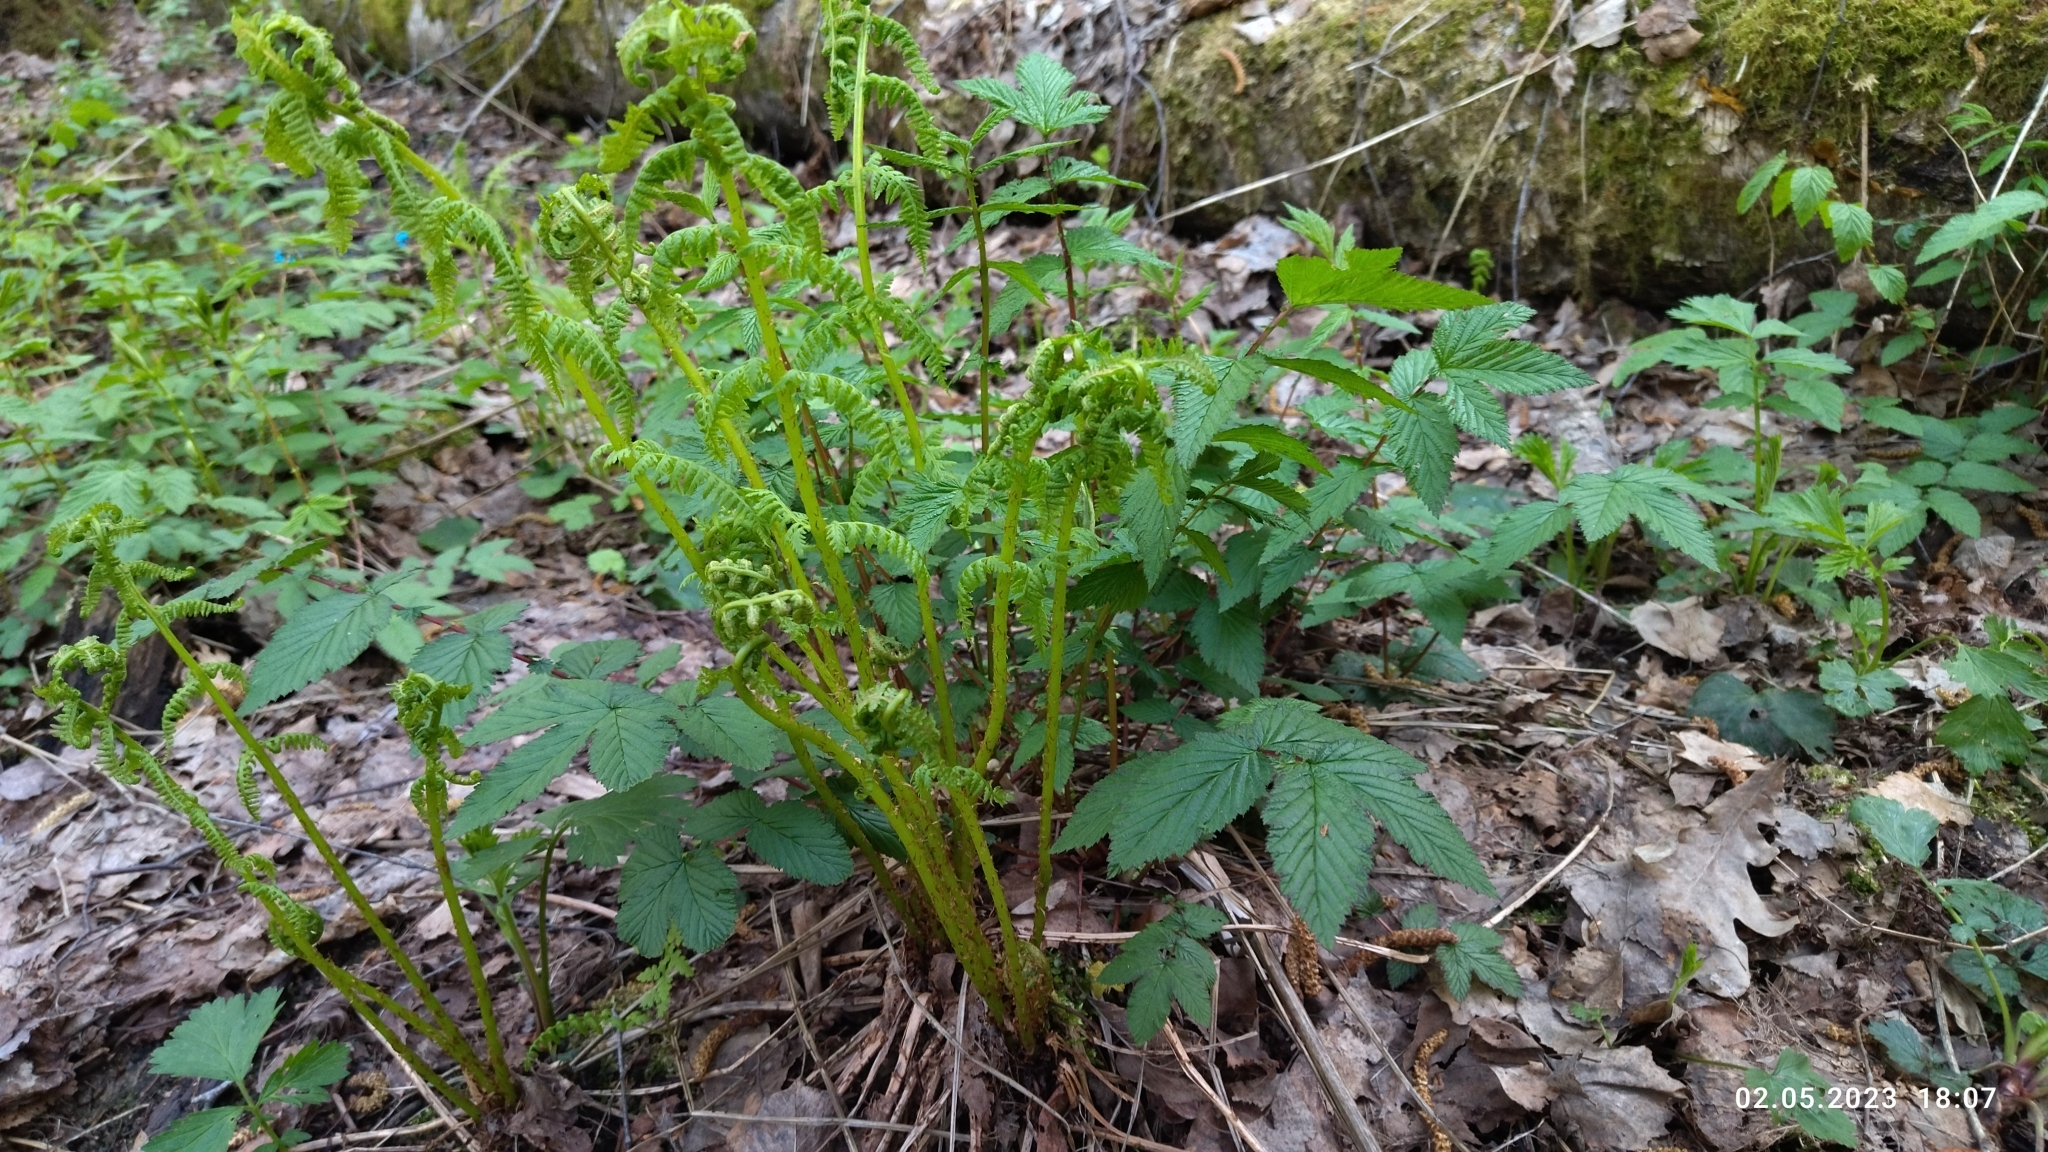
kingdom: Plantae
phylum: Tracheophyta
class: Polypodiopsida
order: Polypodiales
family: Athyriaceae
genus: Athyrium
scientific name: Athyrium filix-femina
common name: Lady fern
